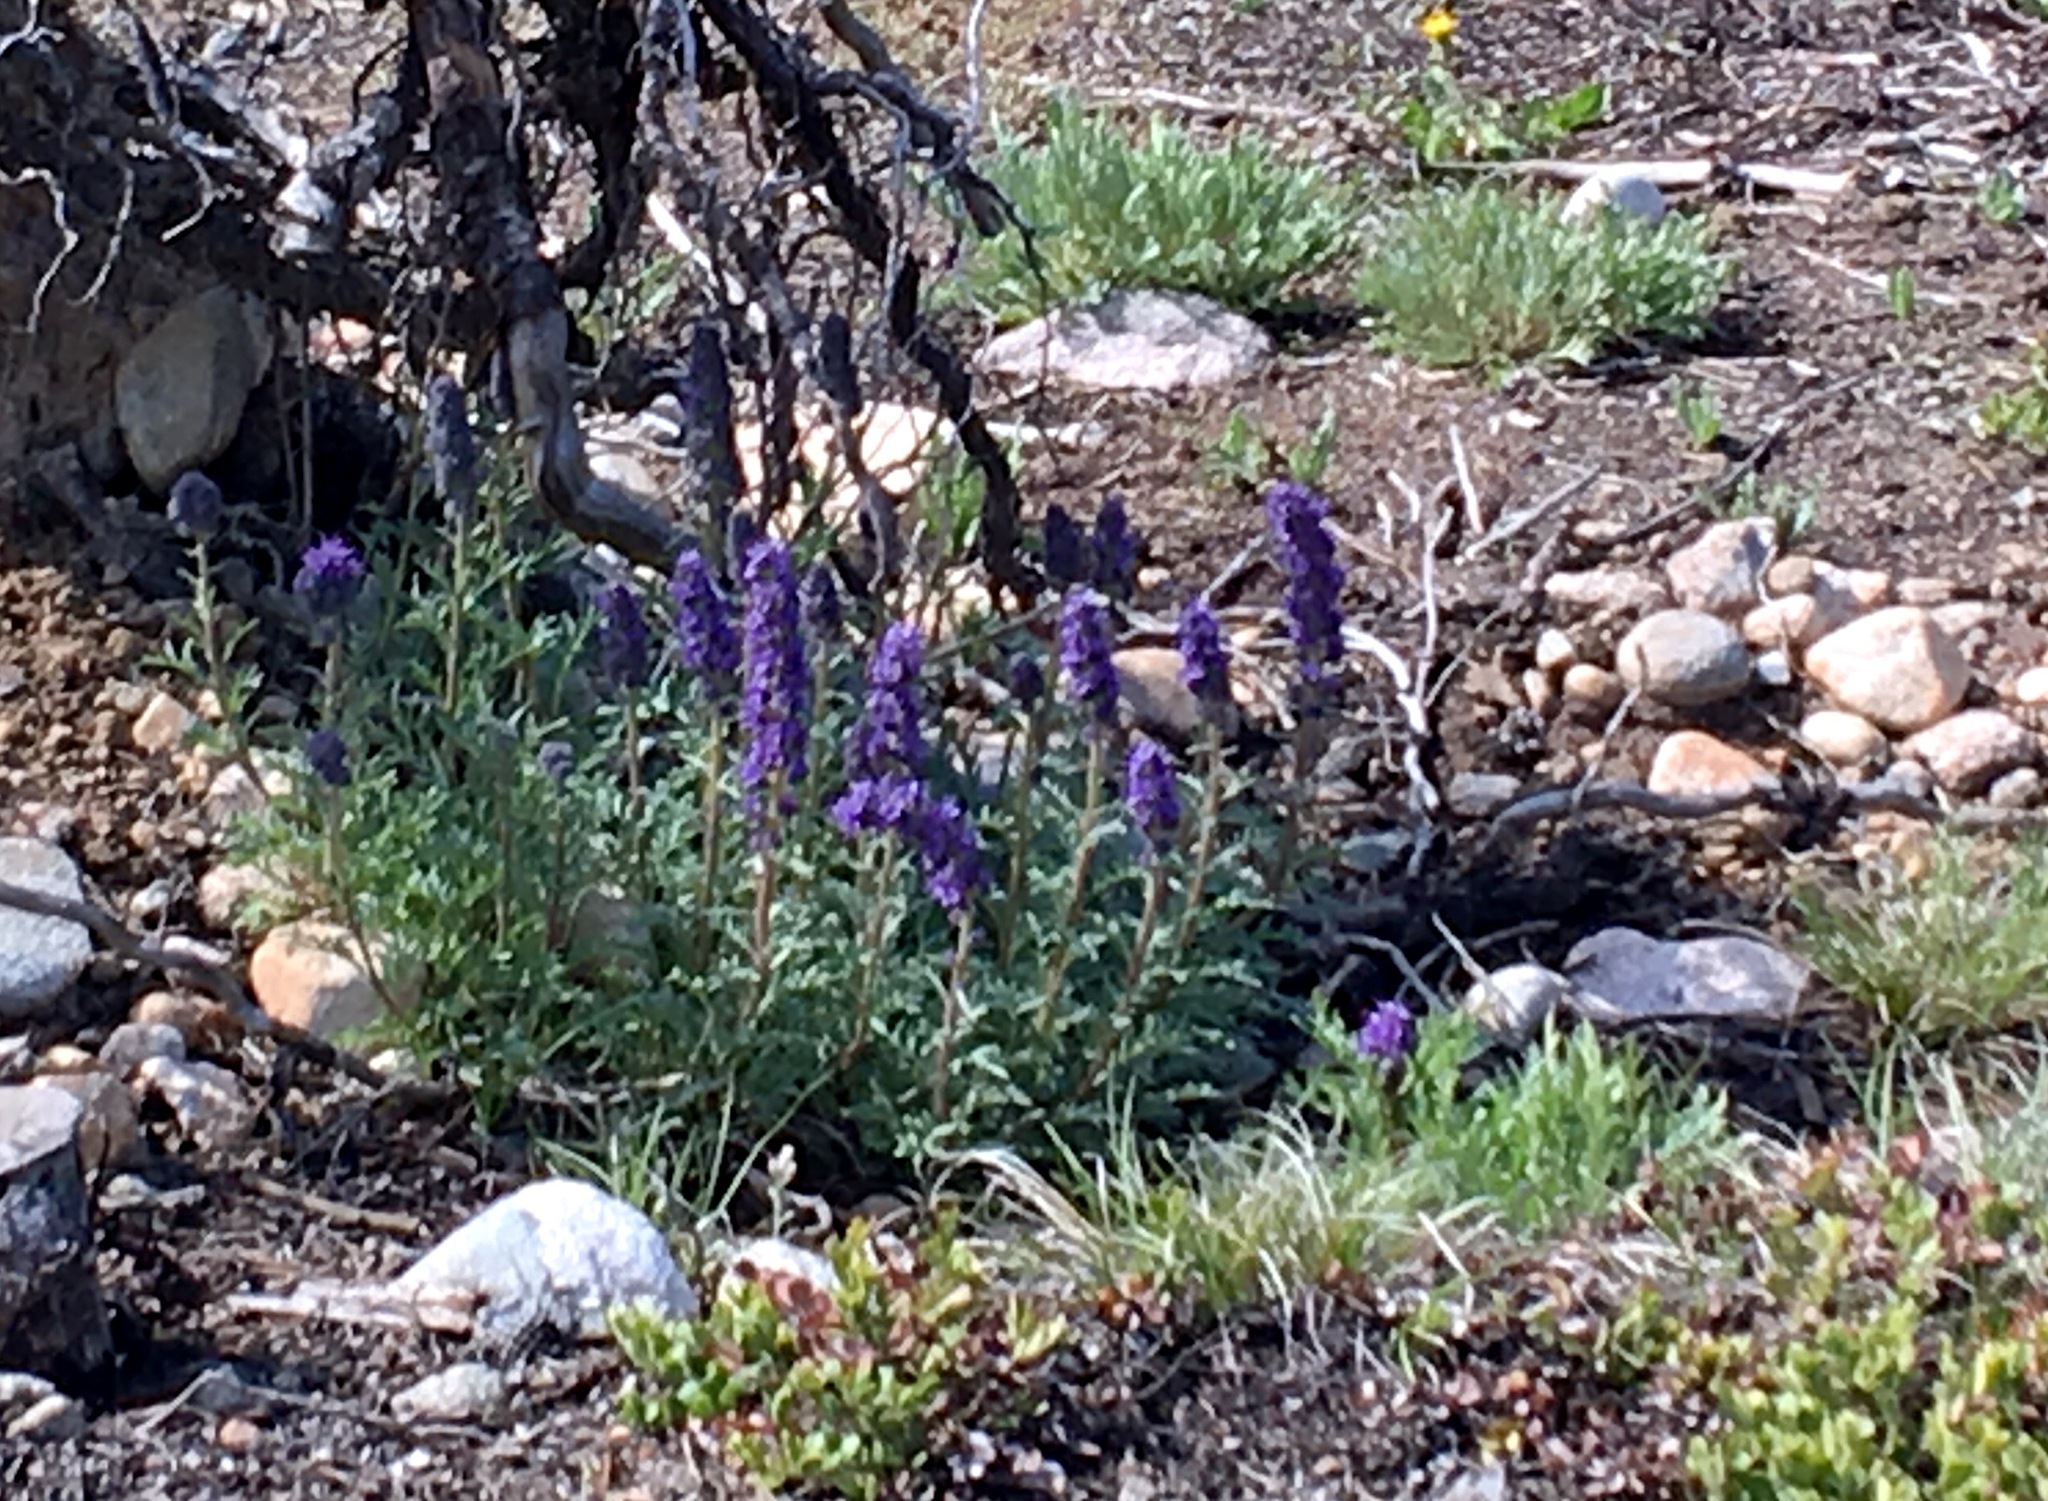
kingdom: Plantae
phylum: Tracheophyta
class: Magnoliopsida
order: Boraginales
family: Hydrophyllaceae
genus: Phacelia
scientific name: Phacelia sericea
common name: Silky phacelia
